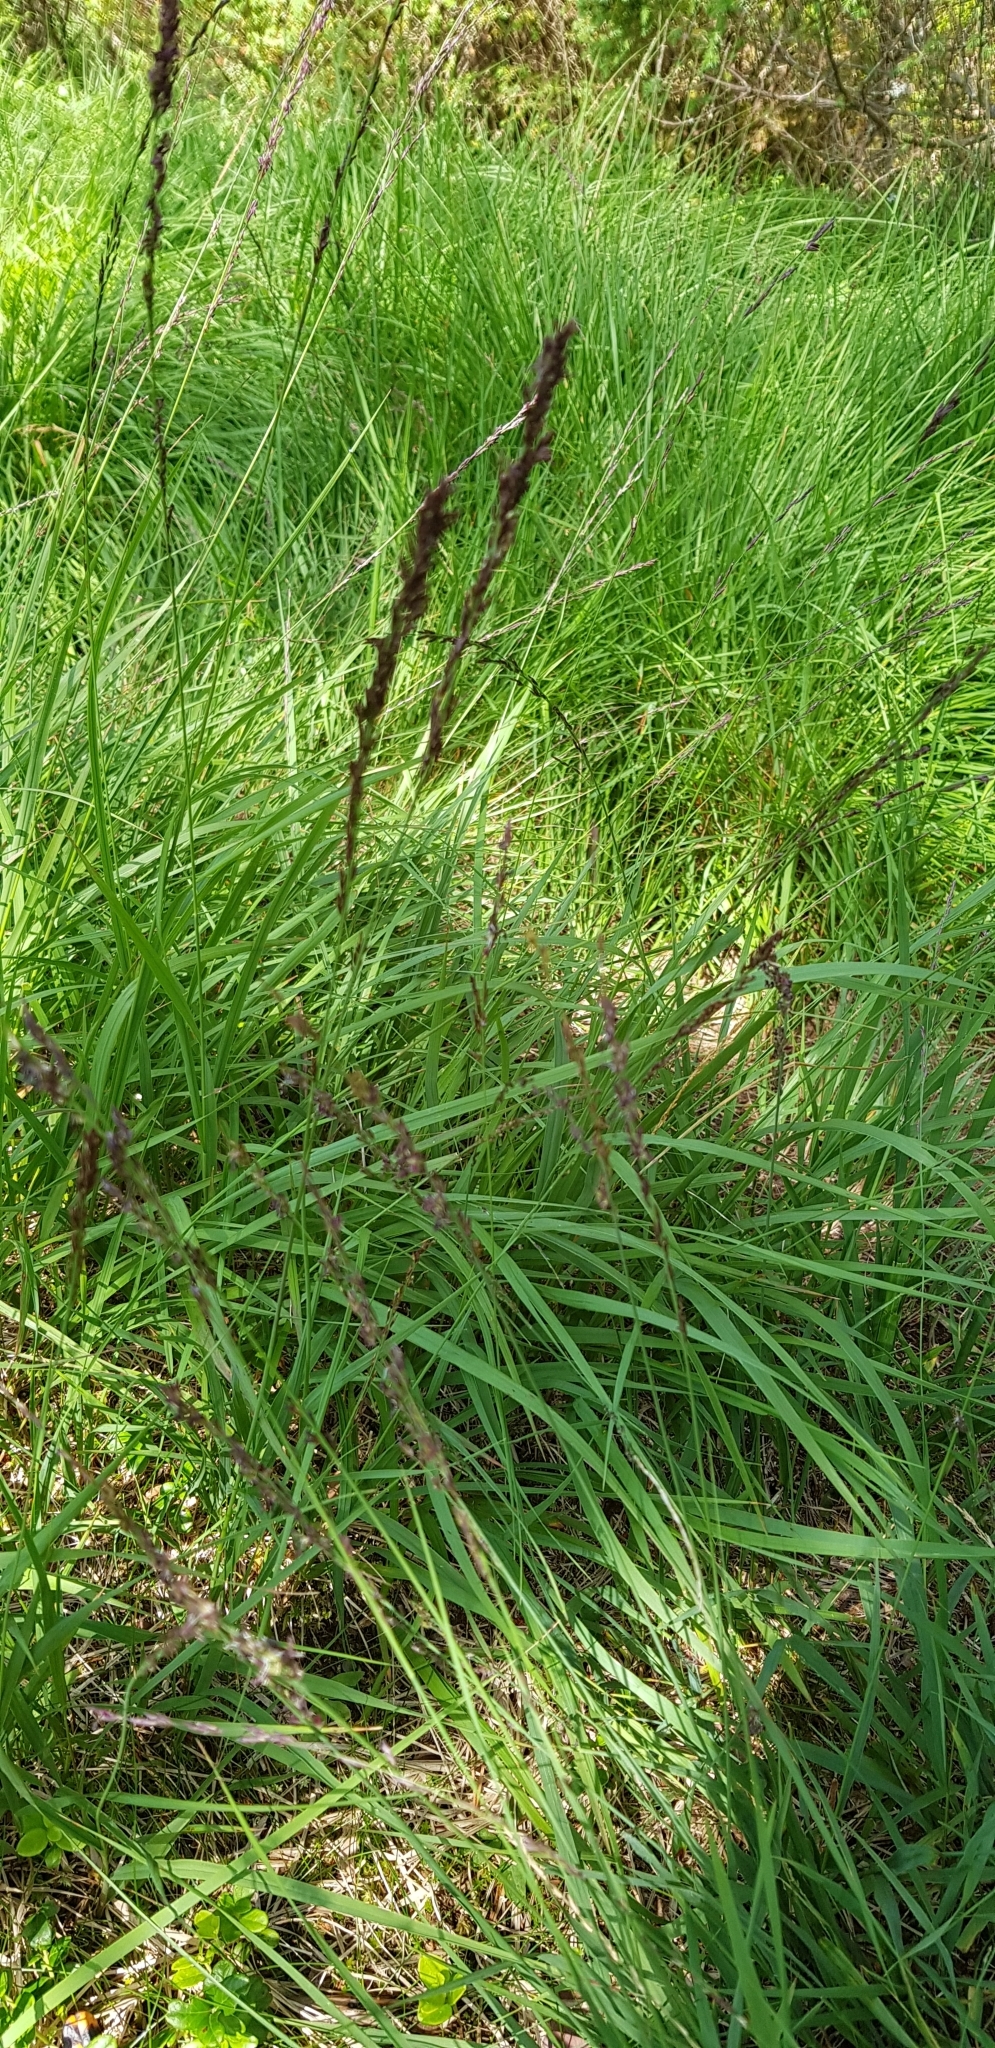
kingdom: Plantae
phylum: Tracheophyta
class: Liliopsida
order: Poales
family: Poaceae
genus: Molinia
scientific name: Molinia caerulea
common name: Purple moor-grass
